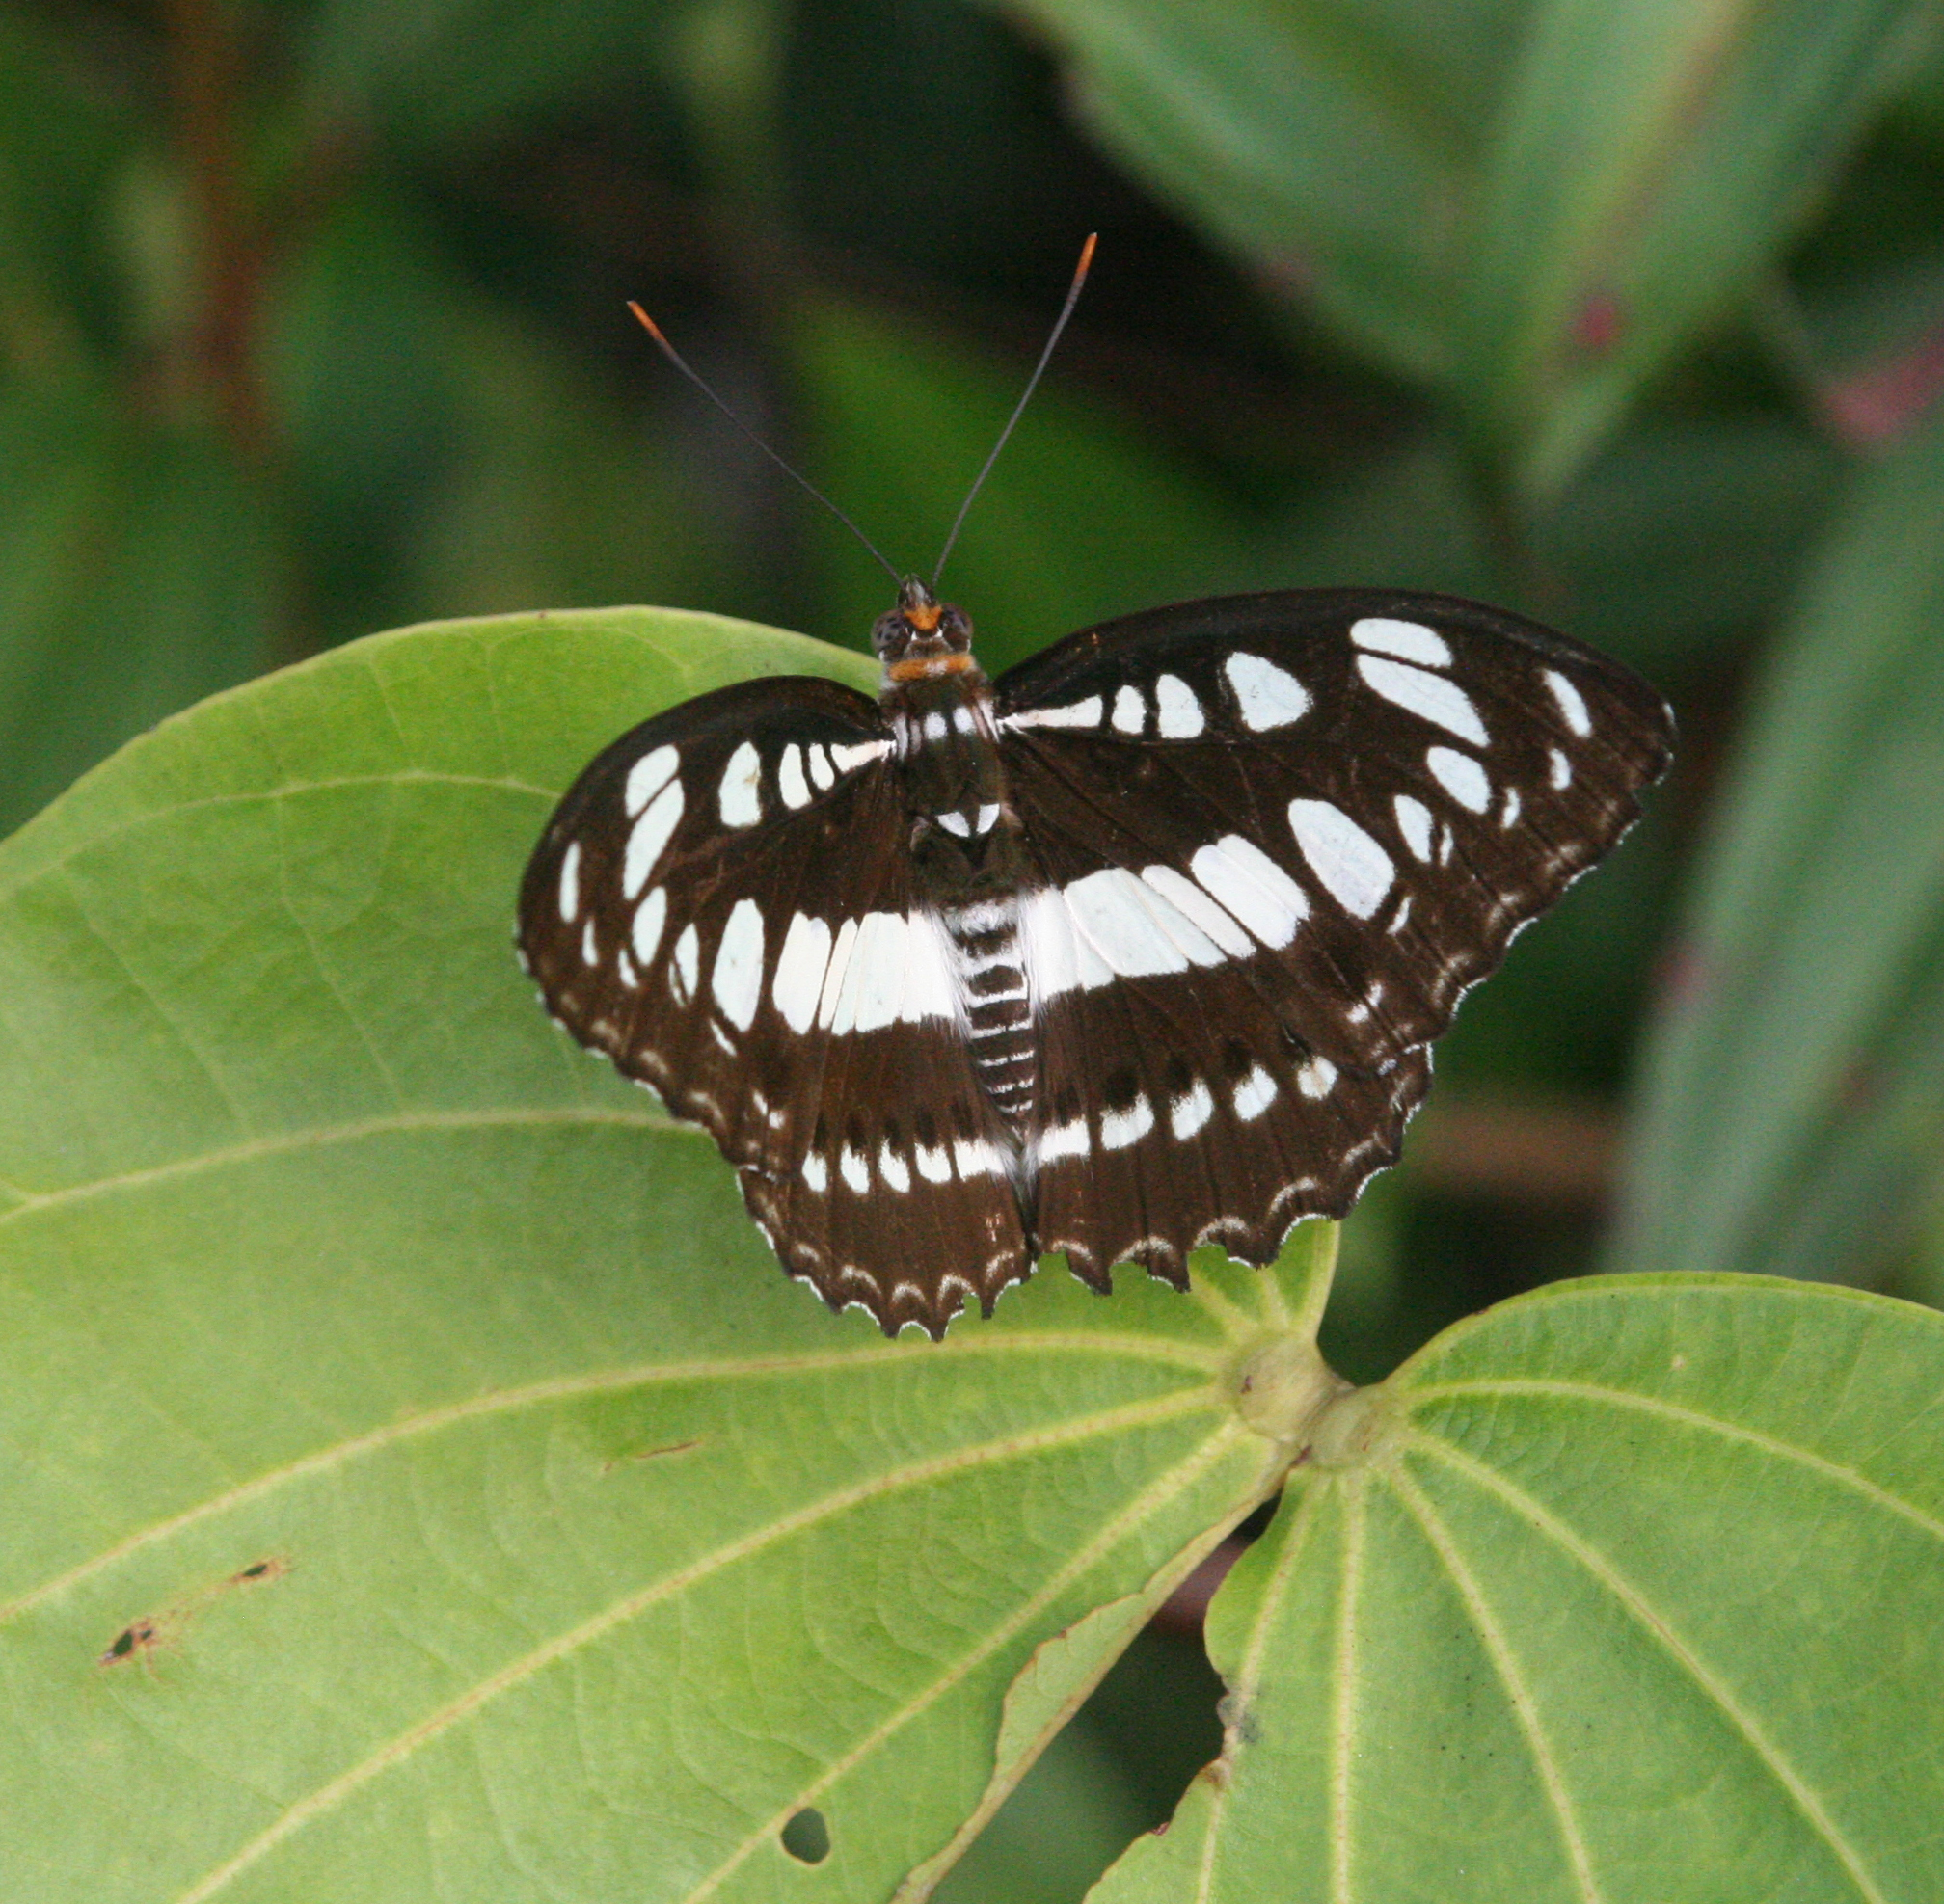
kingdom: Animalia
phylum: Arthropoda
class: Insecta
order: Lepidoptera
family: Nymphalidae
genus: Parathyma
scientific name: Parathyma perius
